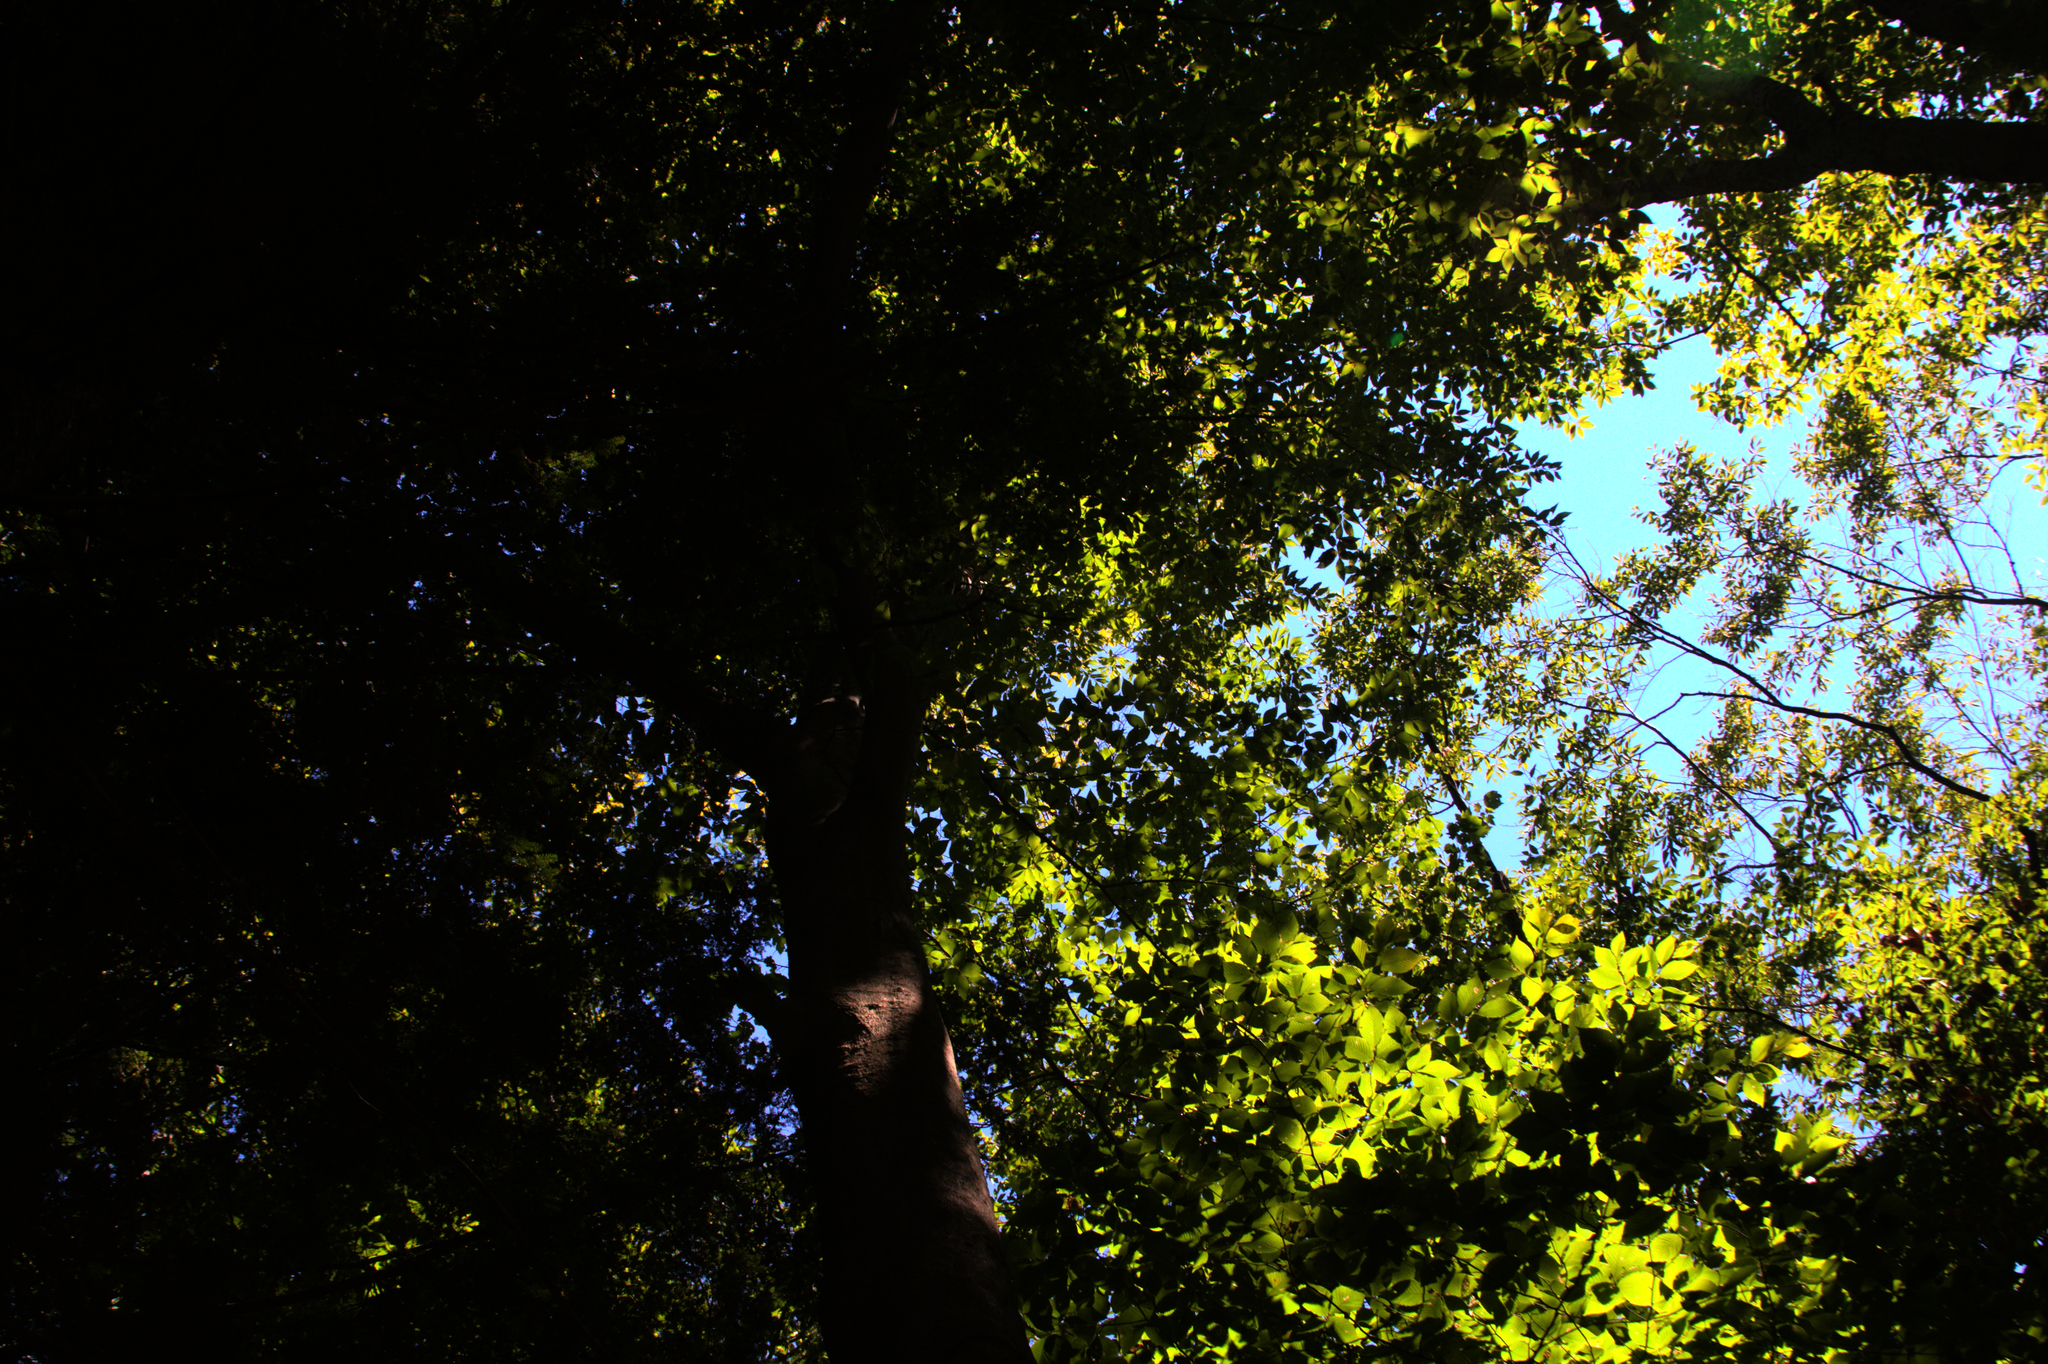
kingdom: Plantae
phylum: Tracheophyta
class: Magnoliopsida
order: Fagales
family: Fagaceae
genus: Fagus
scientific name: Fagus grandifolia
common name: American beech
